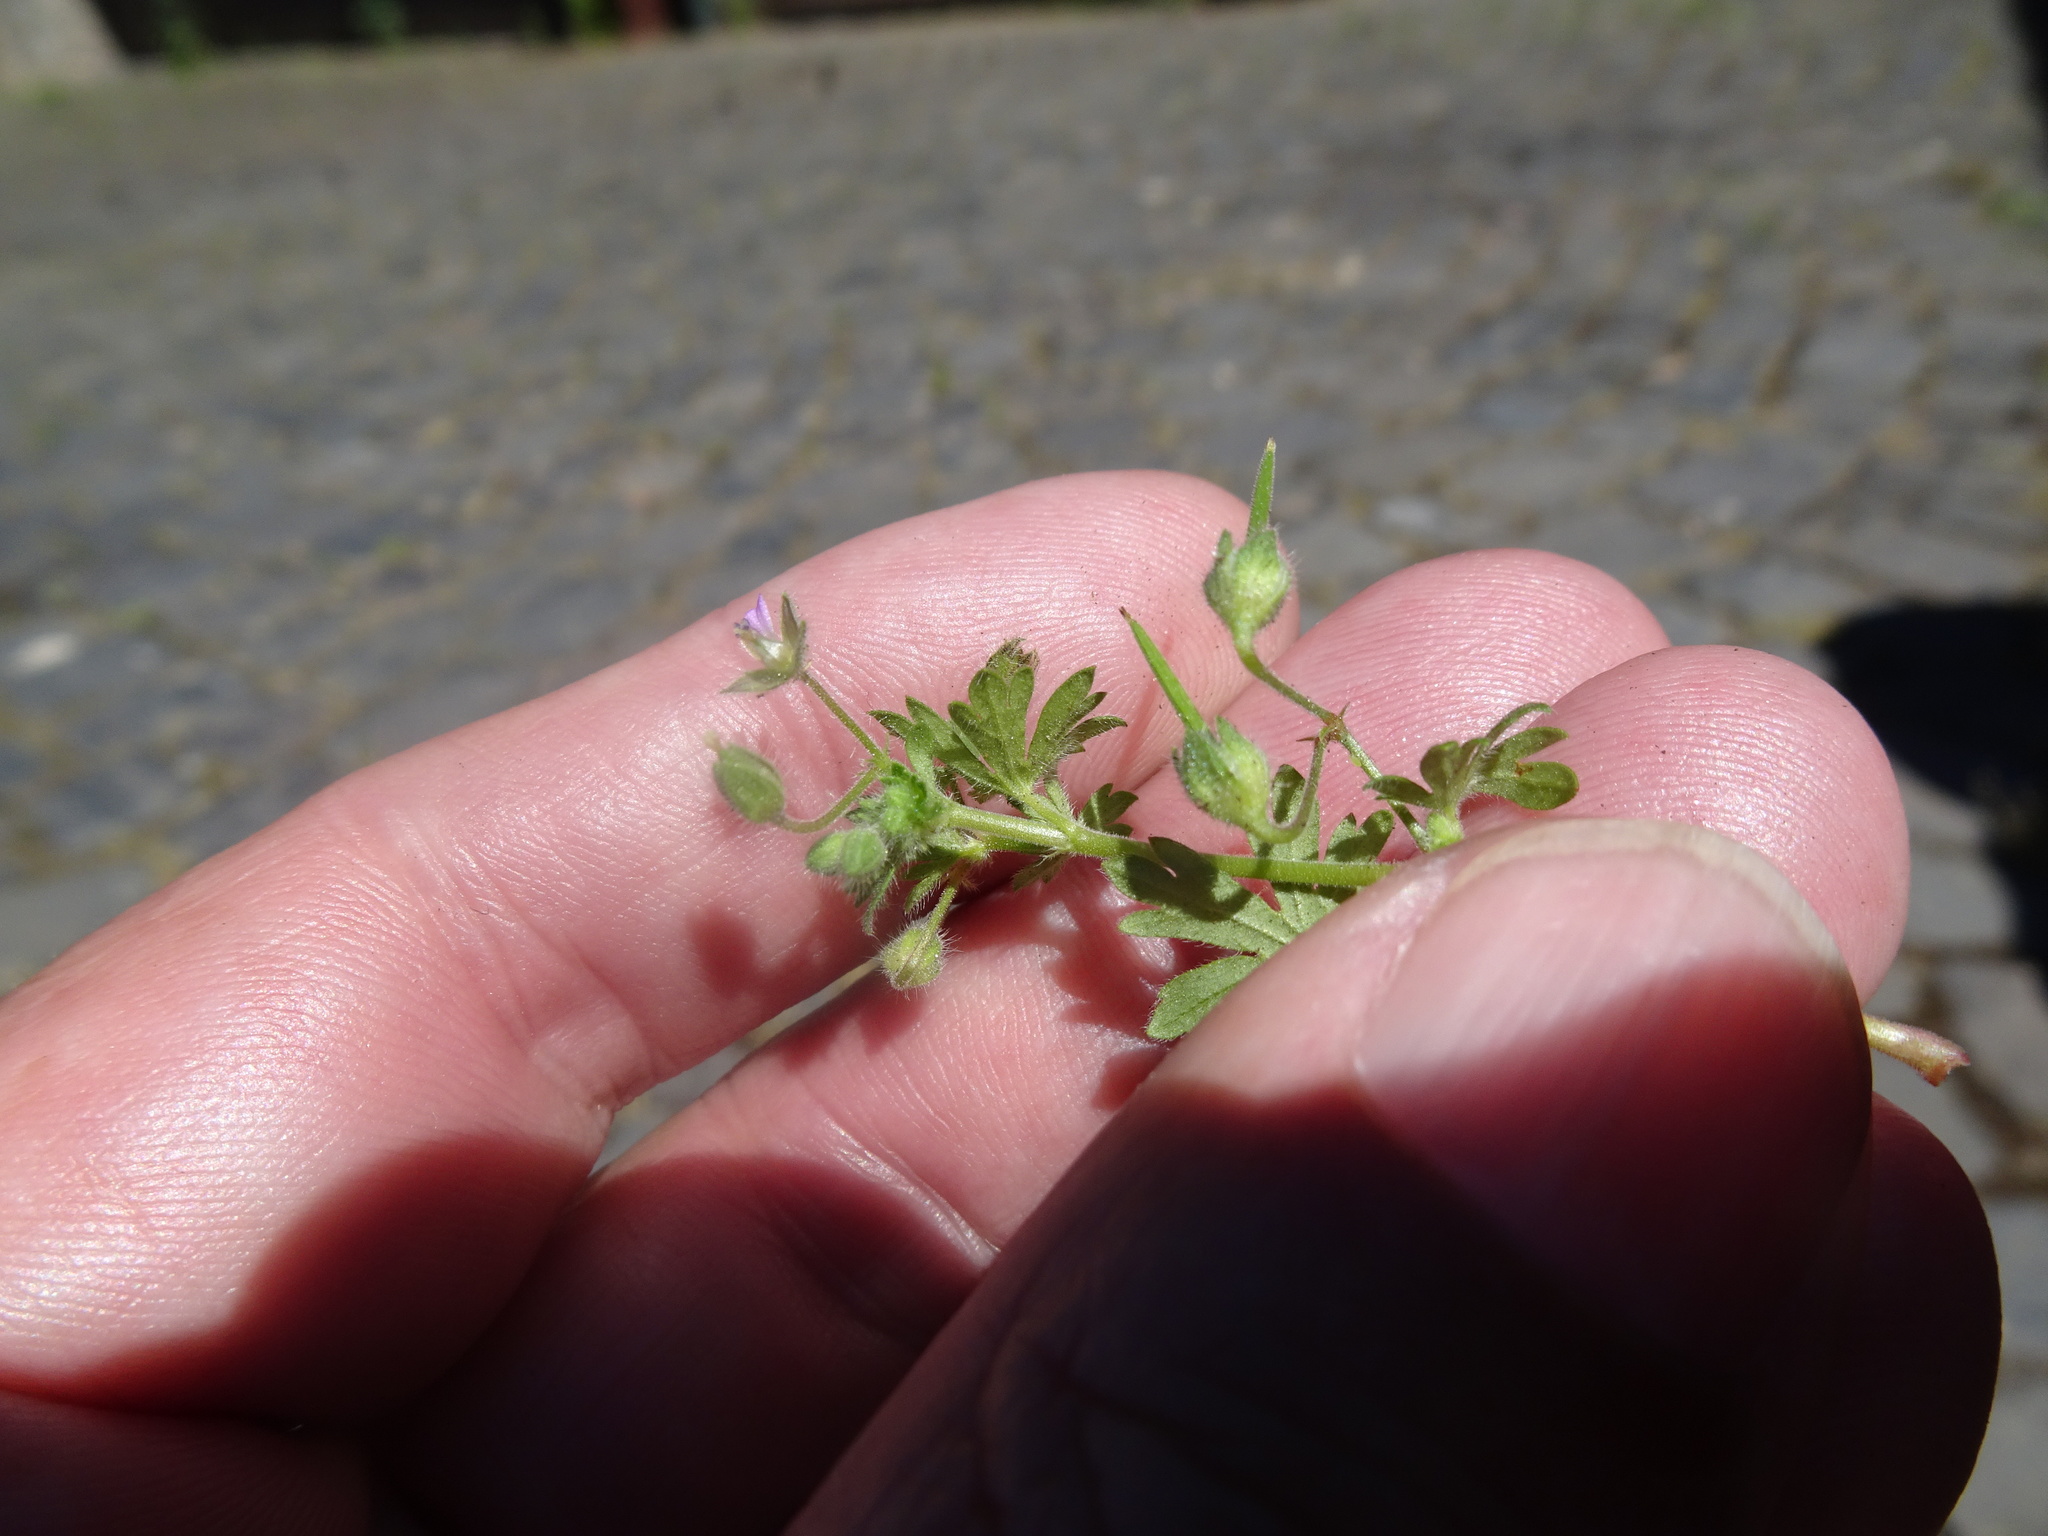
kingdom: Plantae
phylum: Tracheophyta
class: Magnoliopsida
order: Geraniales
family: Geraniaceae
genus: Geranium
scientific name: Geranium pusillum
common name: Small geranium
